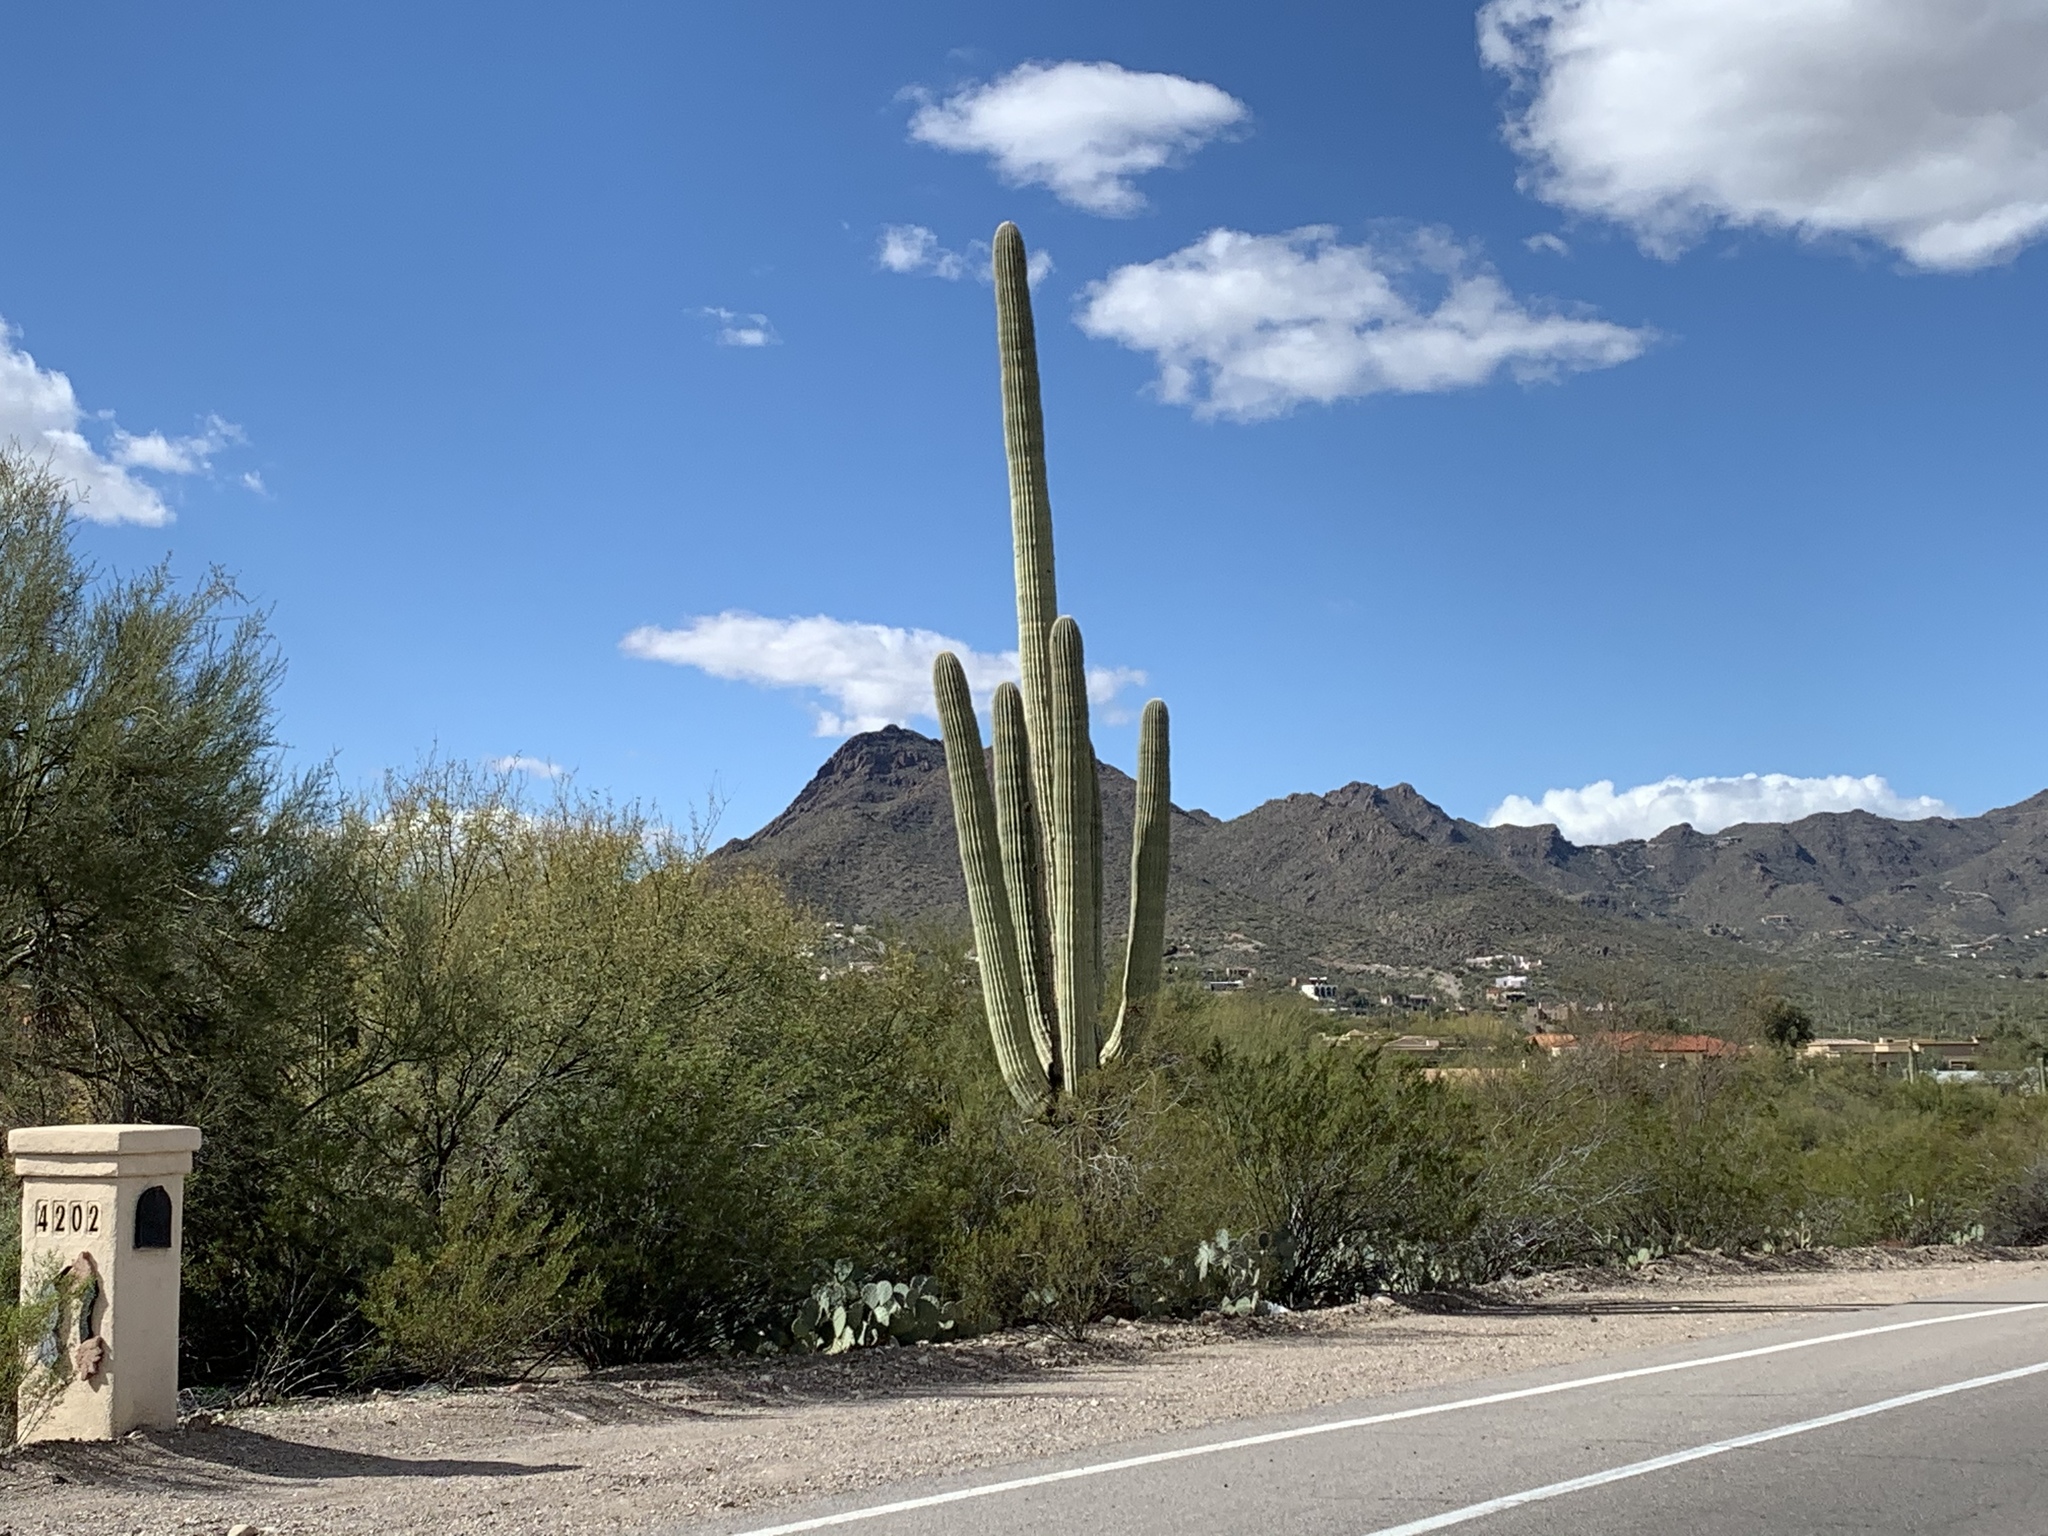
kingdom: Plantae
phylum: Tracheophyta
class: Magnoliopsida
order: Caryophyllales
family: Cactaceae
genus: Carnegiea
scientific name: Carnegiea gigantea
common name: Saguaro
